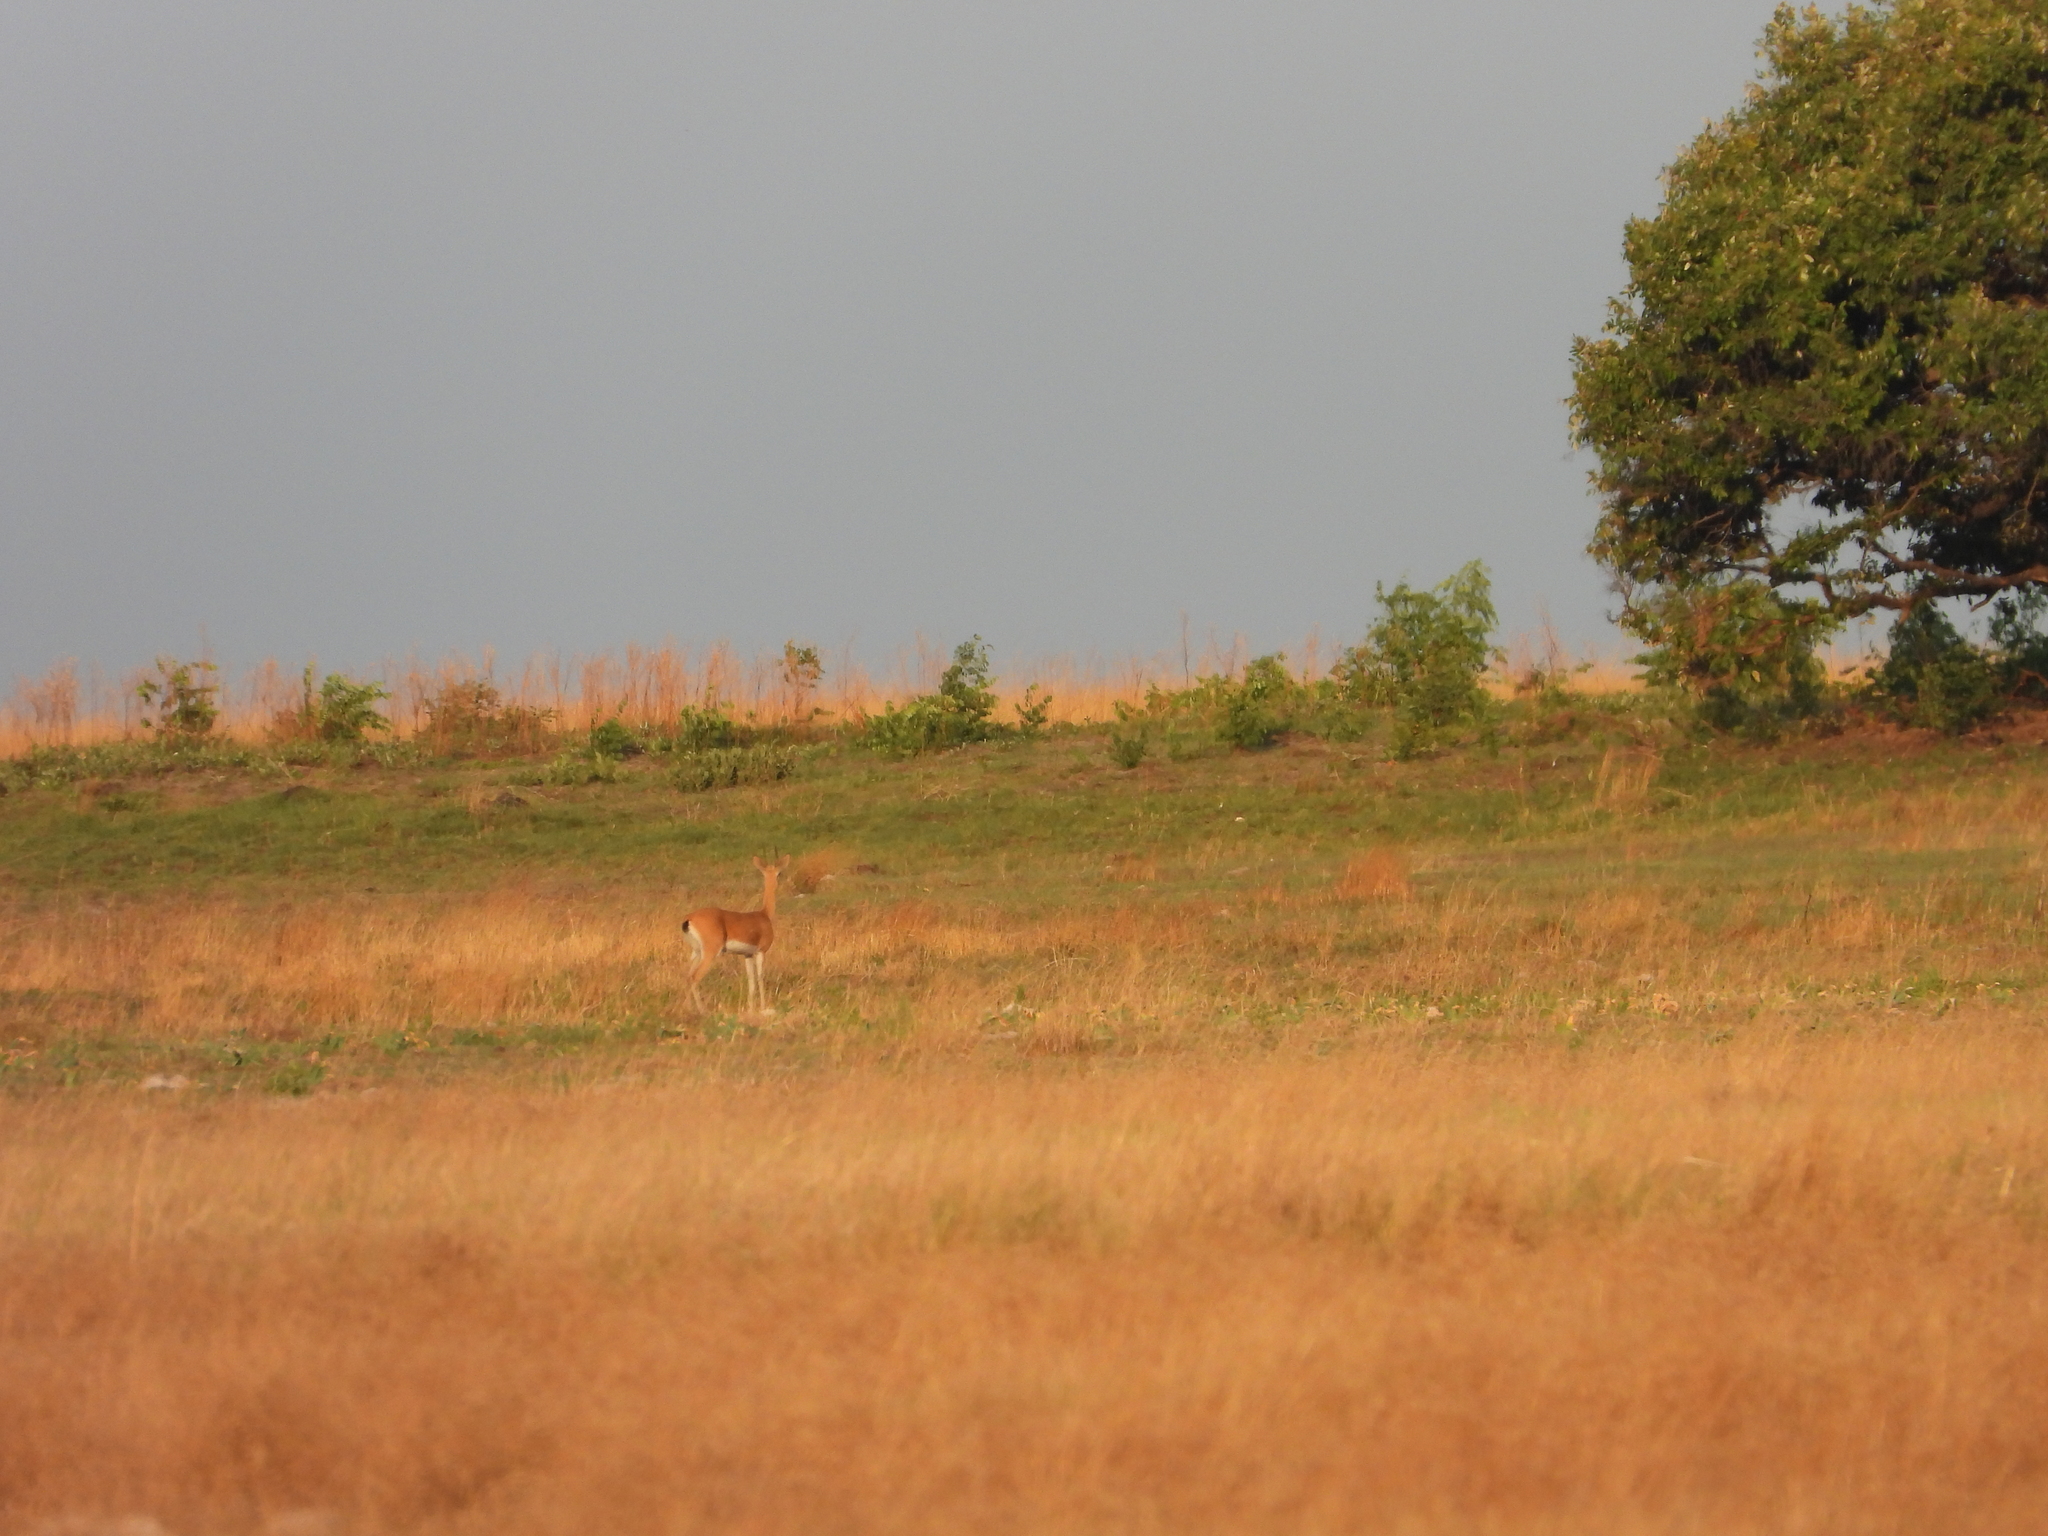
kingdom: Animalia
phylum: Chordata
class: Mammalia
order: Artiodactyla
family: Bovidae
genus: Ourebia
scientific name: Ourebia ourebi
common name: Oribi
